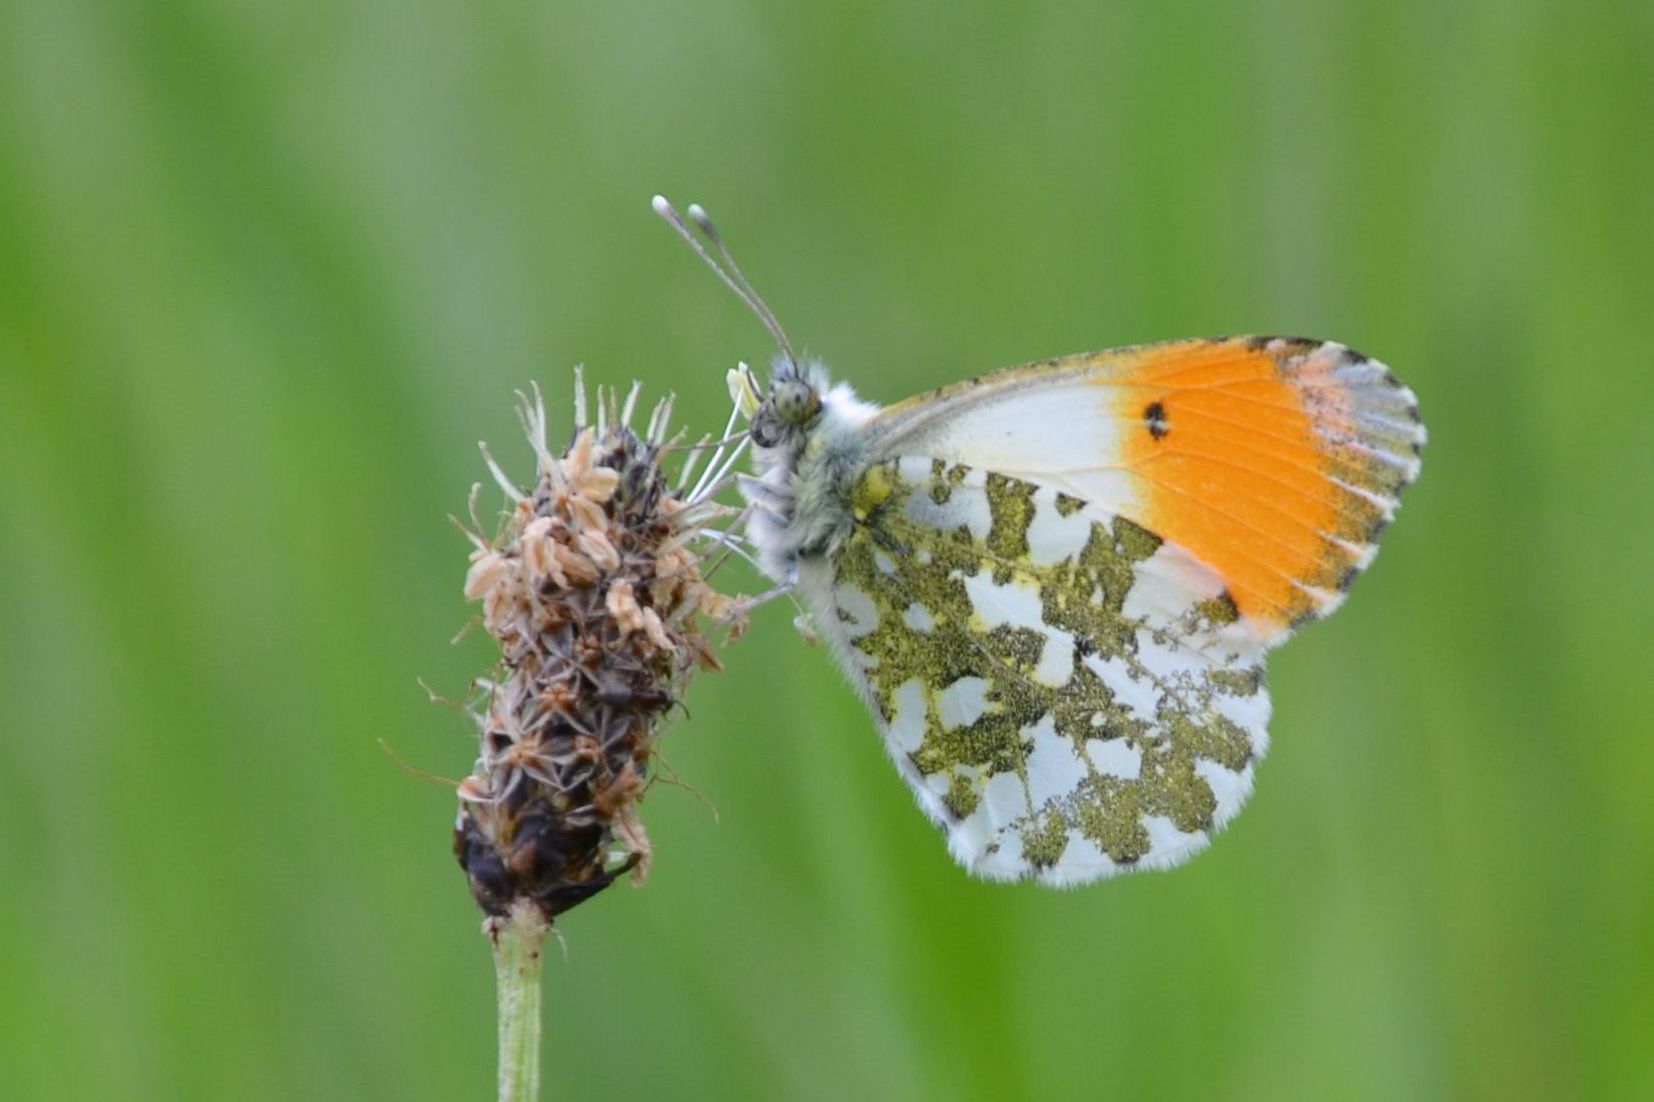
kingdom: Animalia
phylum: Arthropoda
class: Insecta
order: Lepidoptera
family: Pieridae
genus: Anthocharis
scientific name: Anthocharis cardamines
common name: Orange-tip
